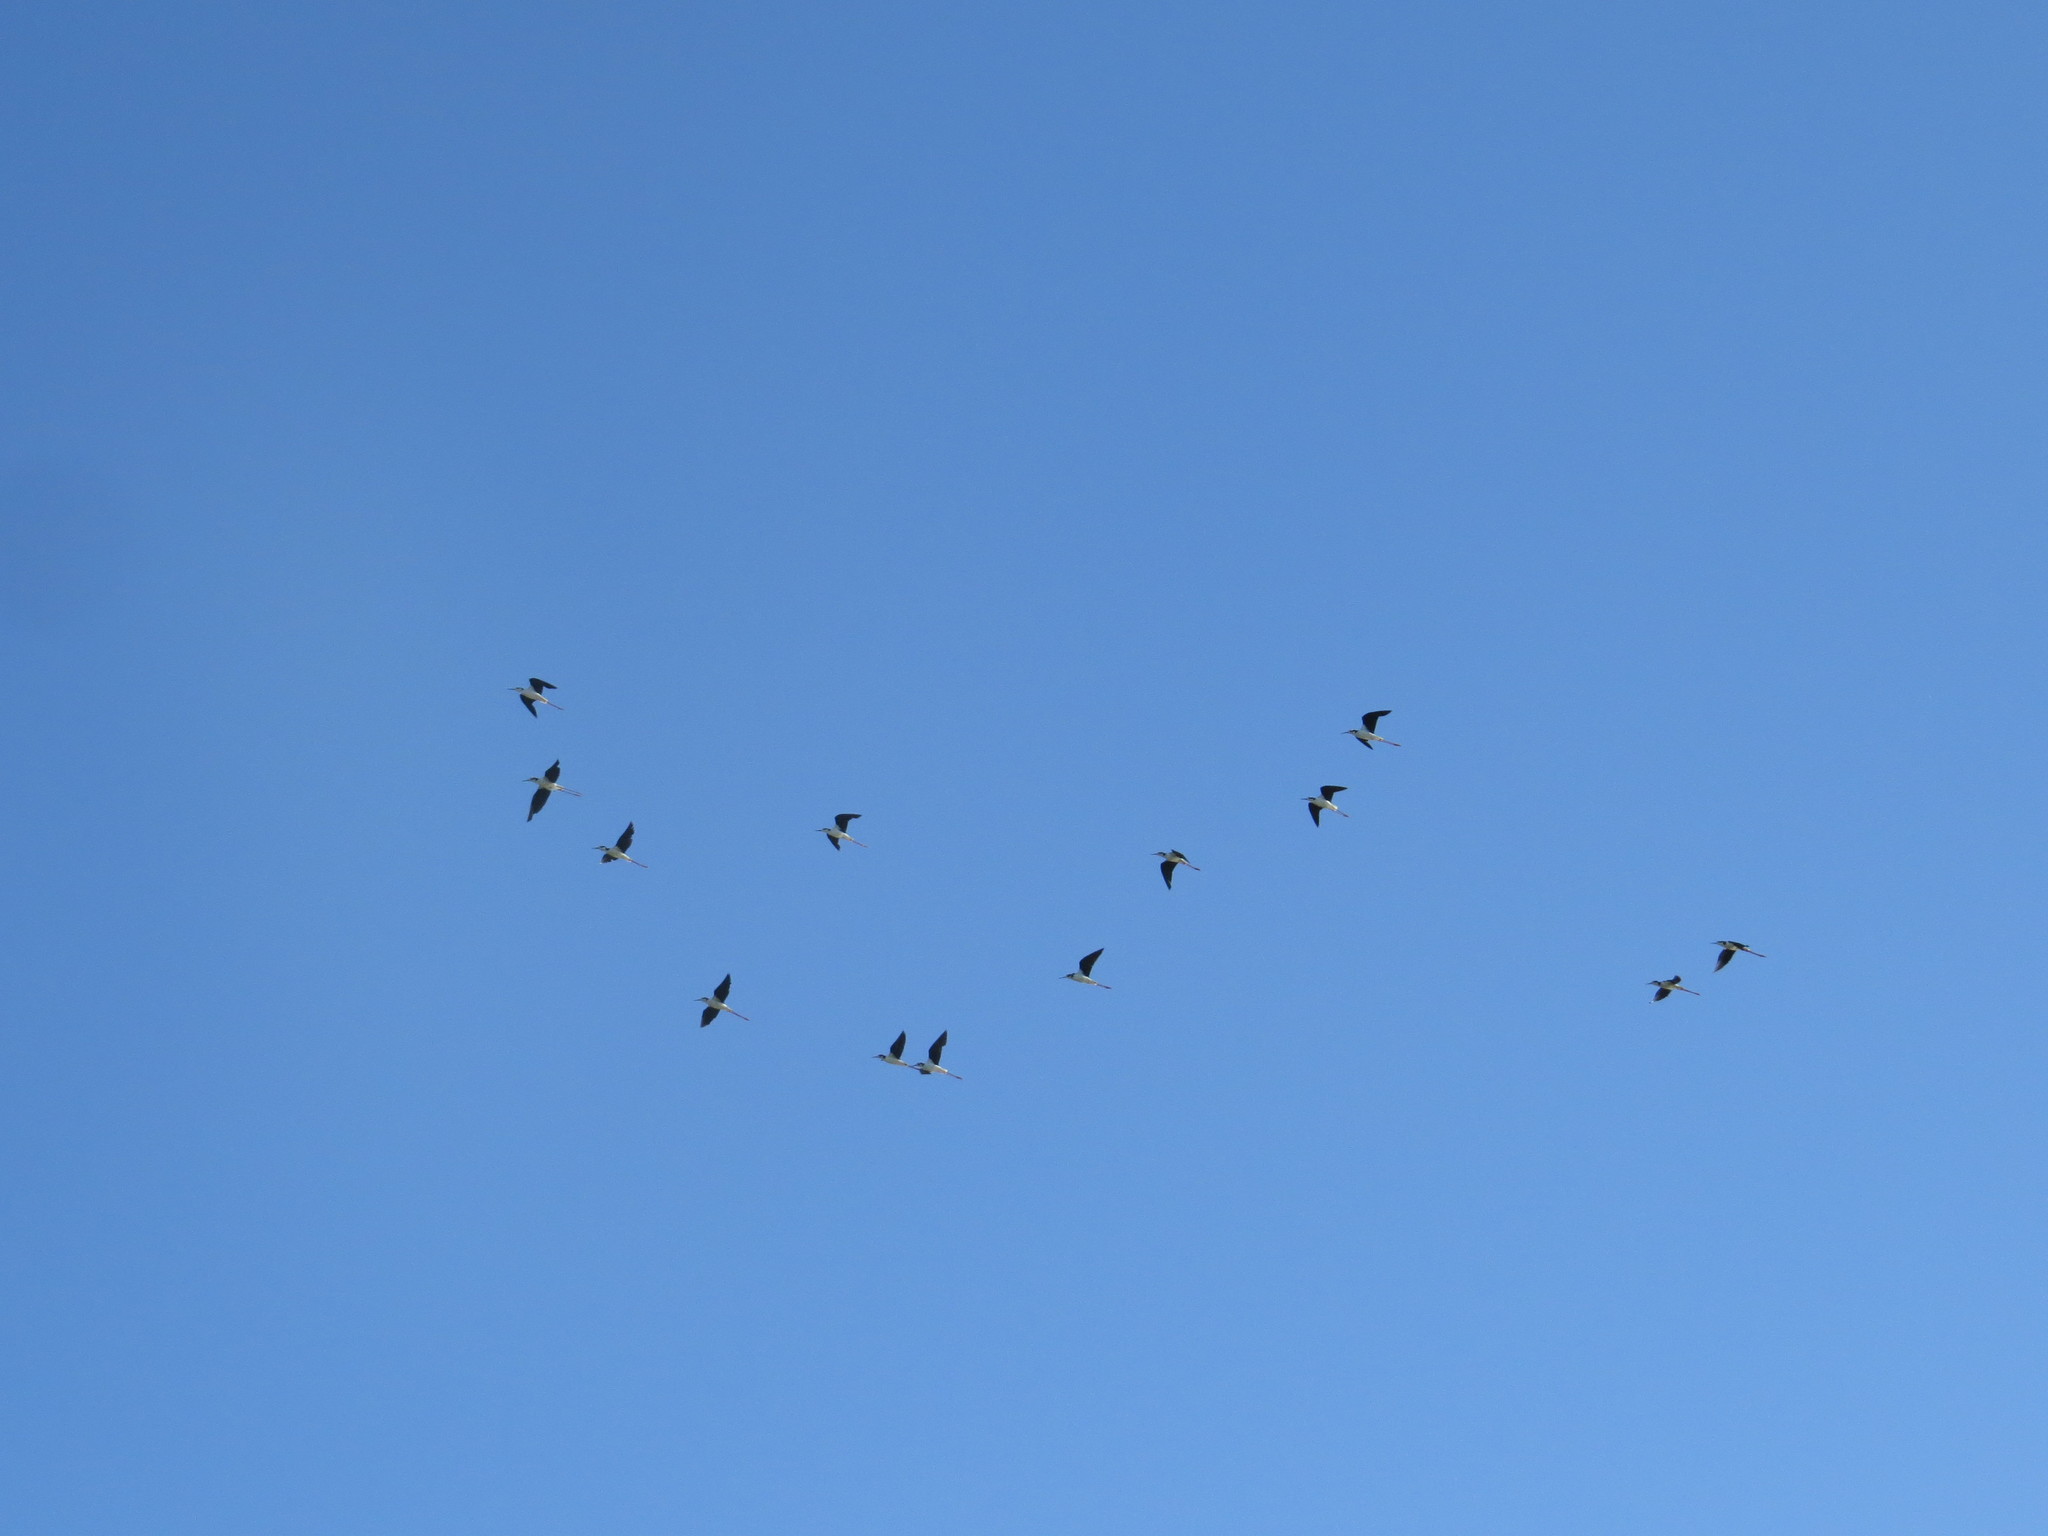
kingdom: Animalia
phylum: Chordata
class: Aves
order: Charadriiformes
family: Recurvirostridae
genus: Himantopus
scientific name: Himantopus mexicanus
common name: Black-necked stilt
